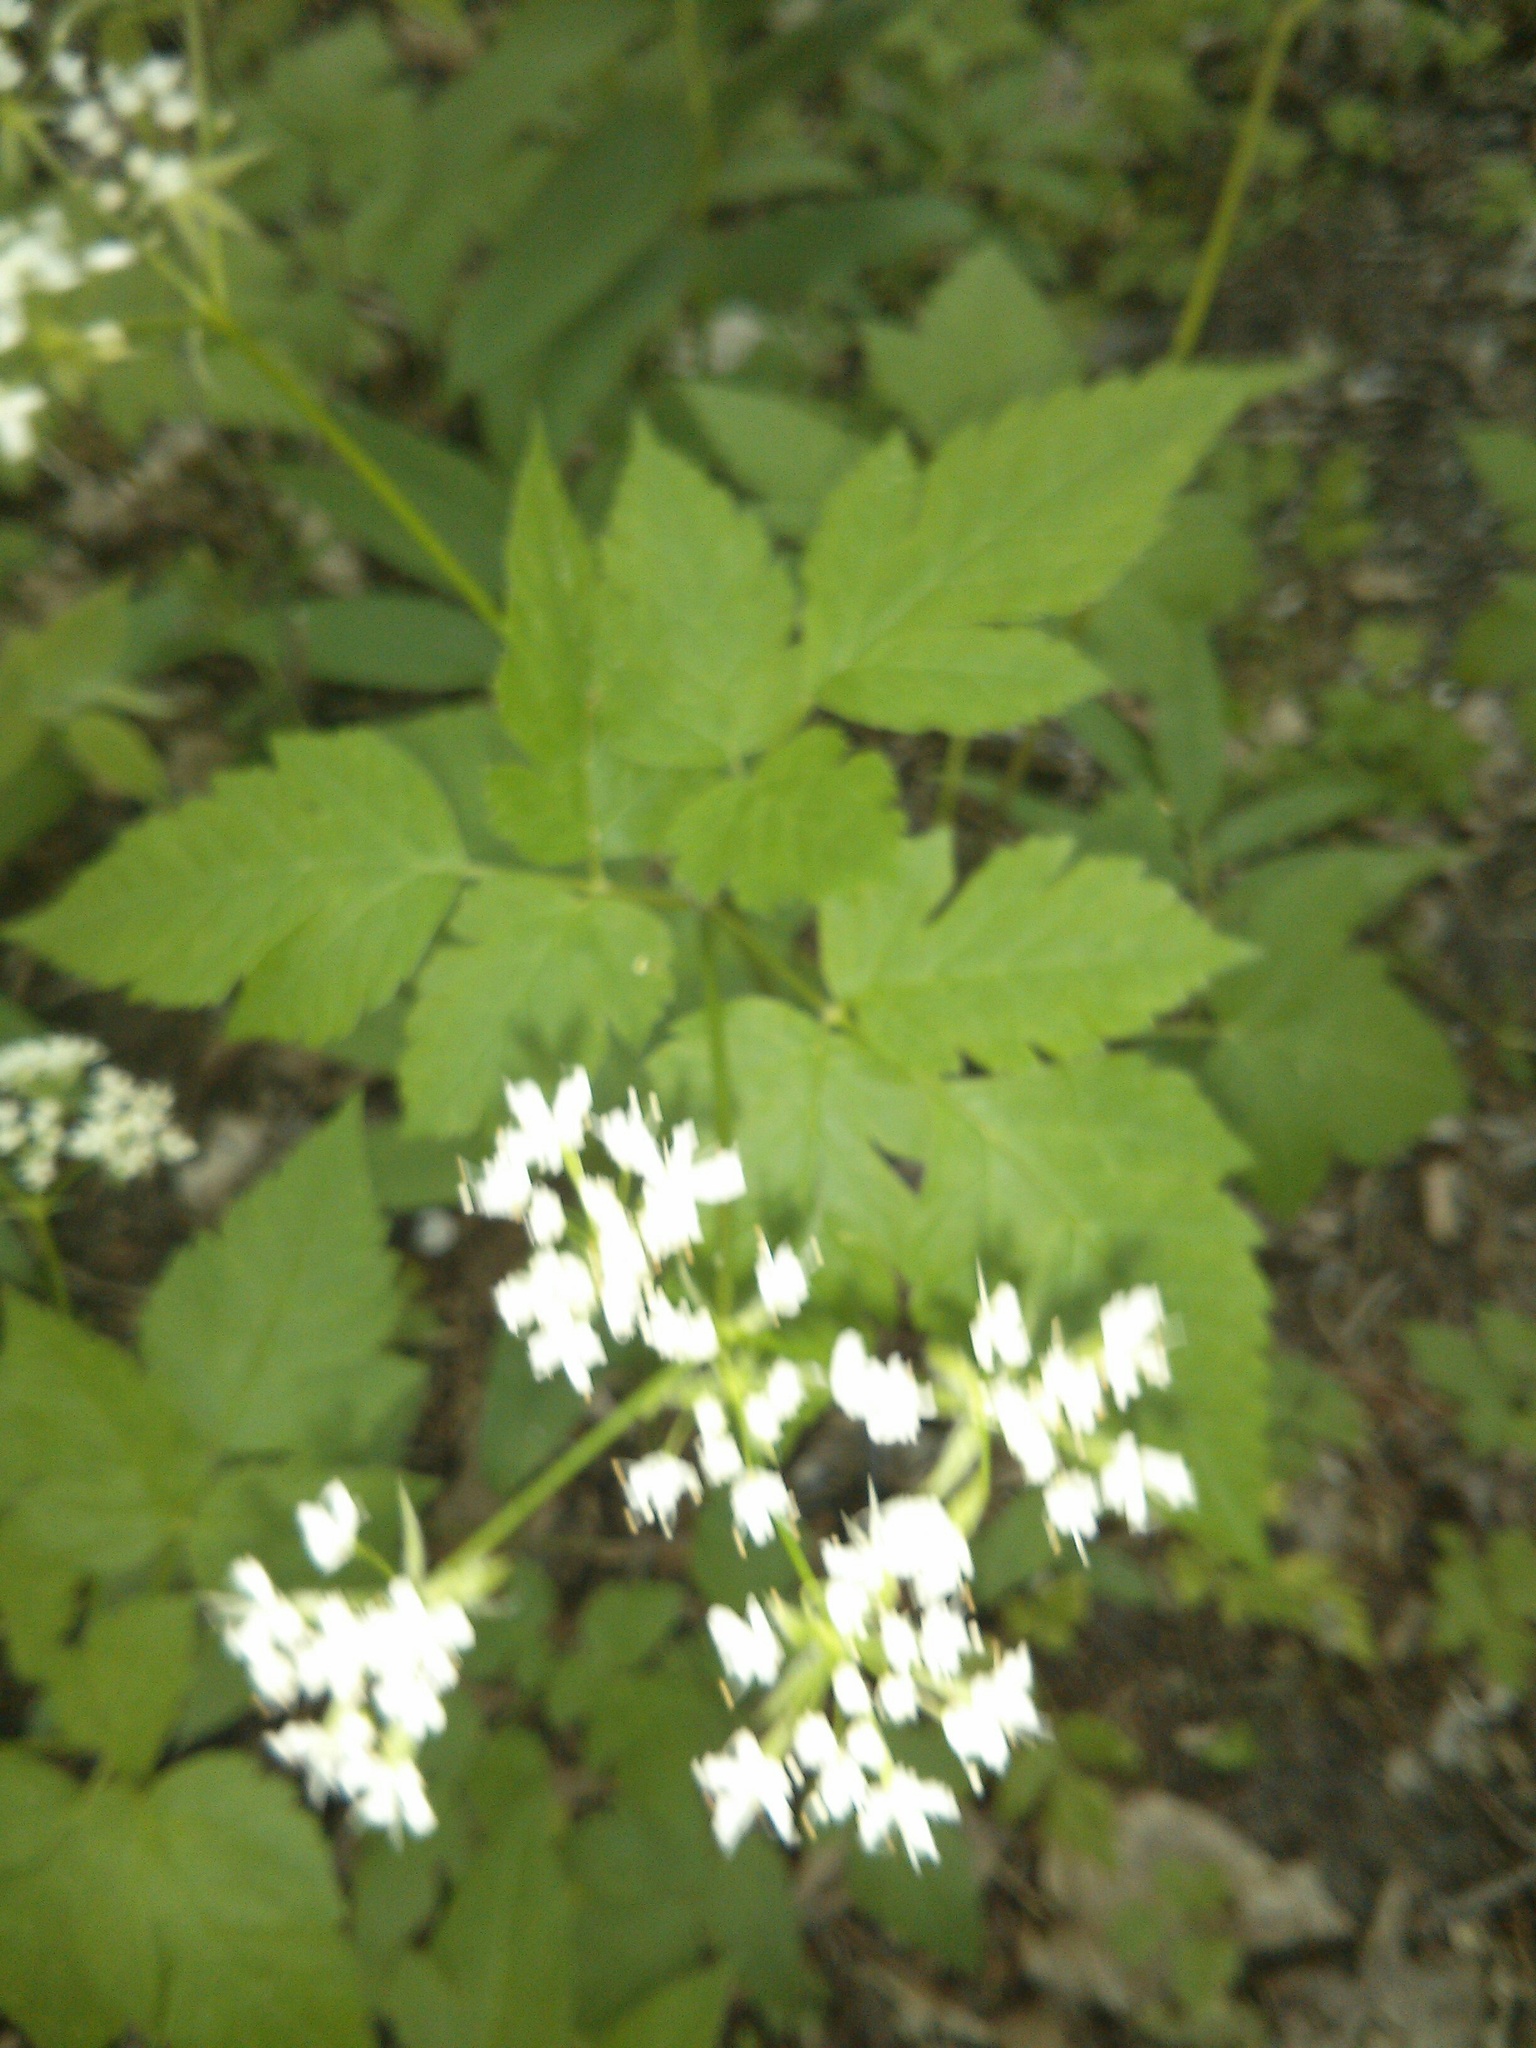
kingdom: Plantae
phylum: Tracheophyta
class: Magnoliopsida
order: Apiales
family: Apiaceae
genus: Osmorhiza
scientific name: Osmorhiza longistylis
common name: Smooth sweet cicely
